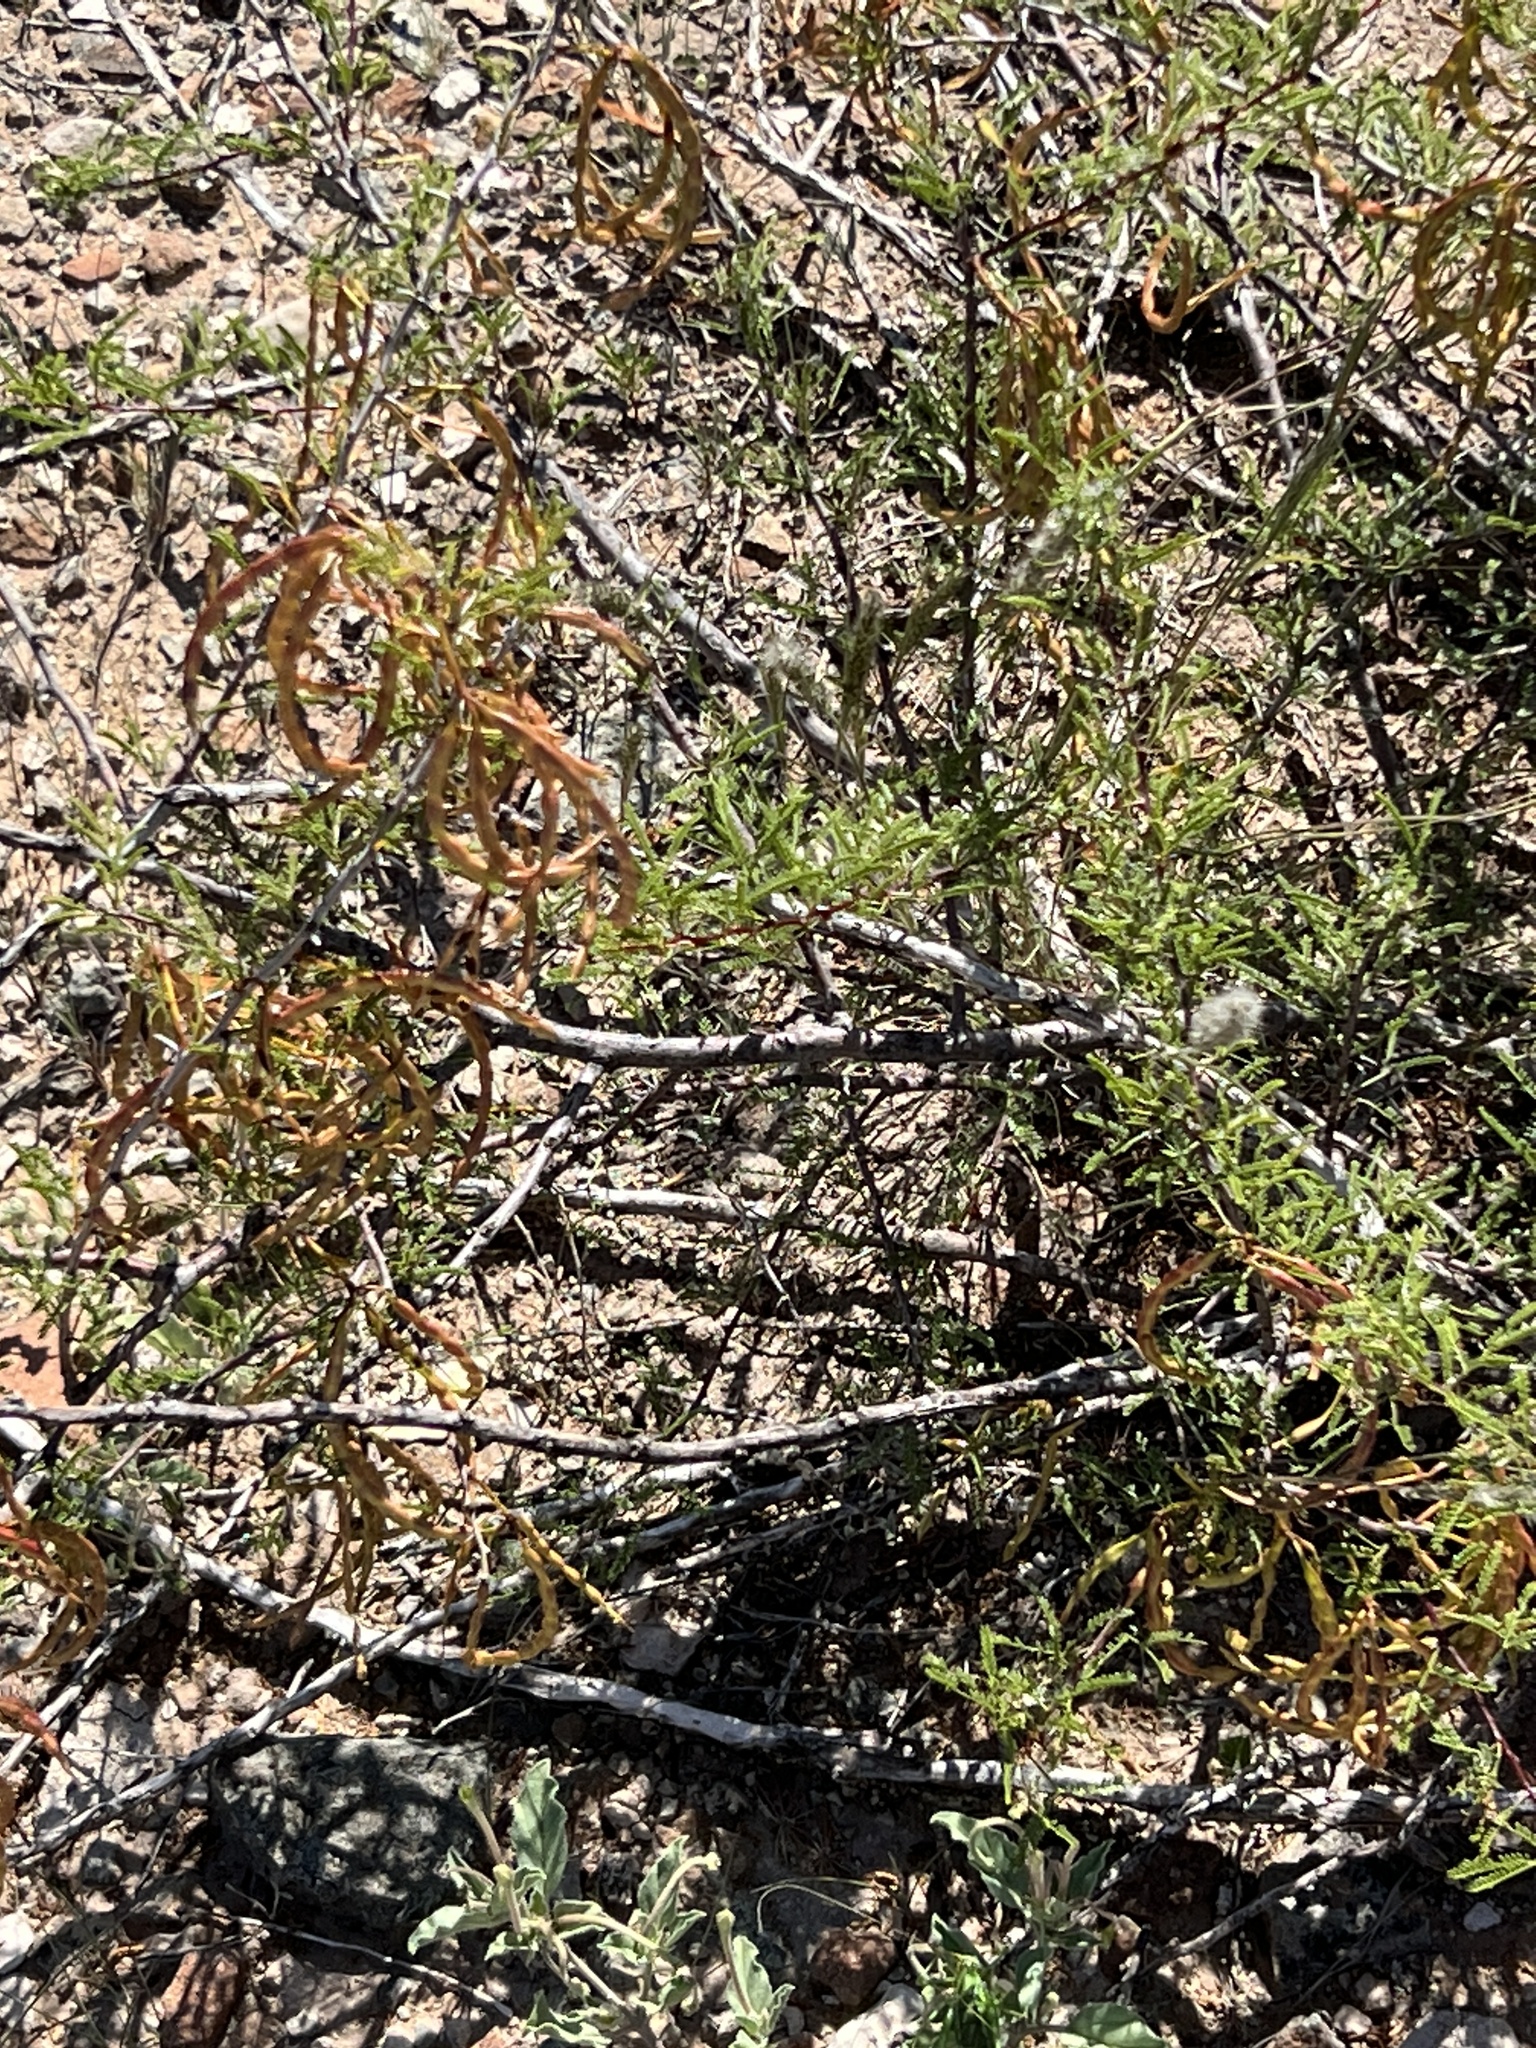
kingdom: Plantae
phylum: Tracheophyta
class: Magnoliopsida
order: Fabales
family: Fabaceae
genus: Vachellia
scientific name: Vachellia vernicosa
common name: Viscid acacia
